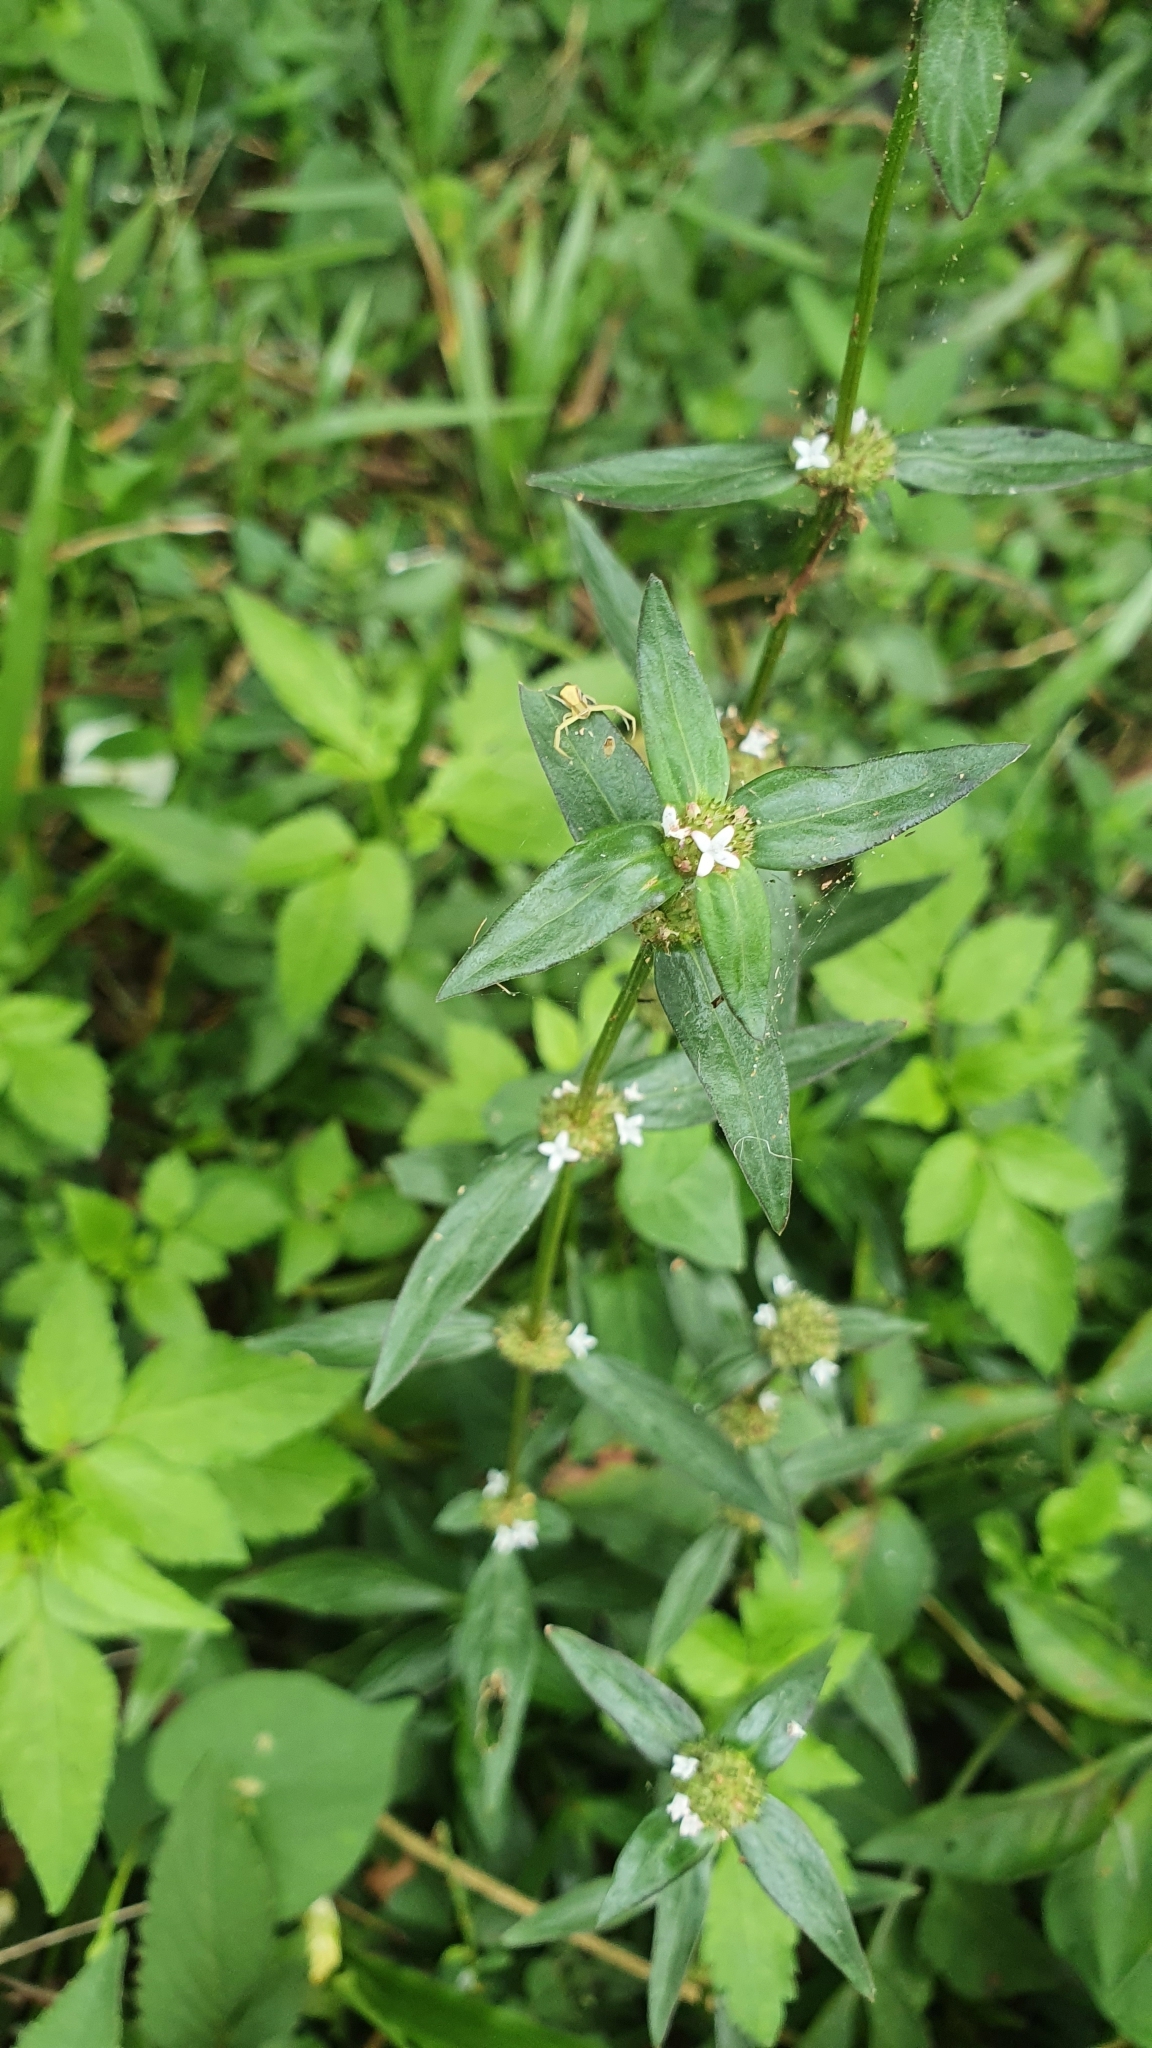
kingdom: Plantae
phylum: Tracheophyta
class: Magnoliopsida
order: Gentianales
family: Rubiaceae
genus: Spermacoce
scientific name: Spermacoce remota
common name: Woodland false buttonweed
